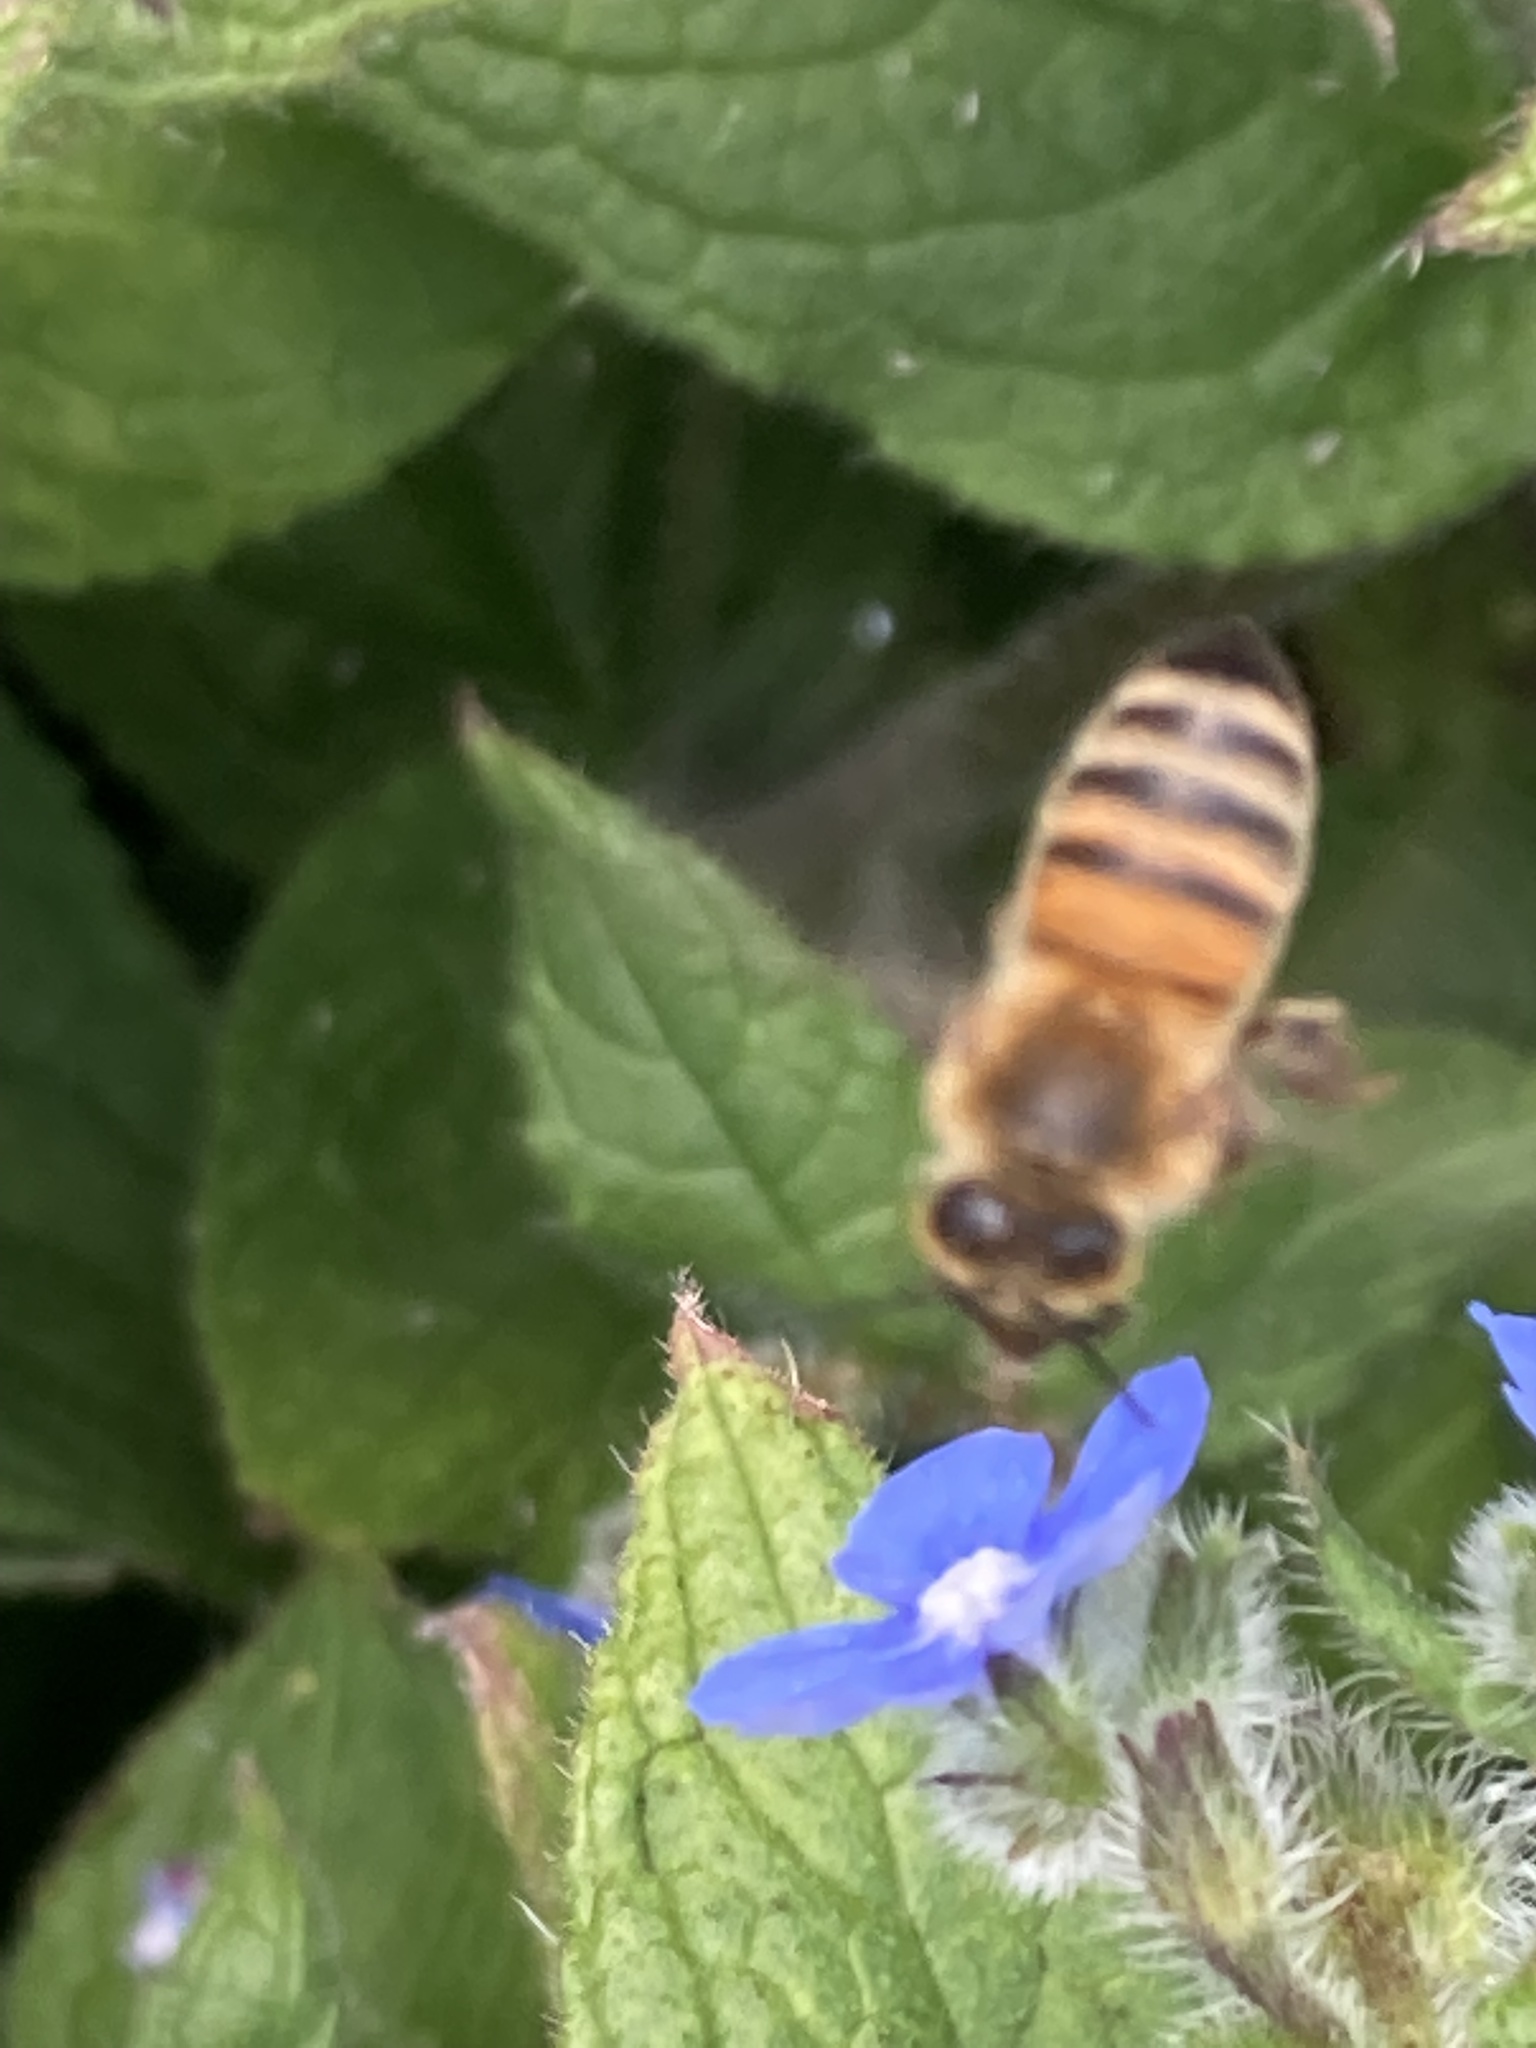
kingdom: Animalia
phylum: Arthropoda
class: Insecta
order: Hymenoptera
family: Apidae
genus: Apis
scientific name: Apis mellifera
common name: Honey bee
